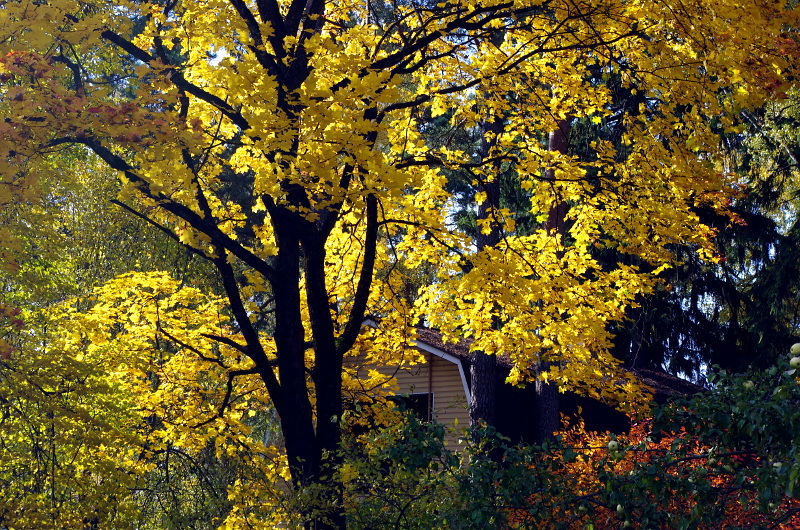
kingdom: Plantae
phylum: Tracheophyta
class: Magnoliopsida
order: Sapindales
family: Sapindaceae
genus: Acer
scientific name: Acer platanoides
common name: Norway maple
